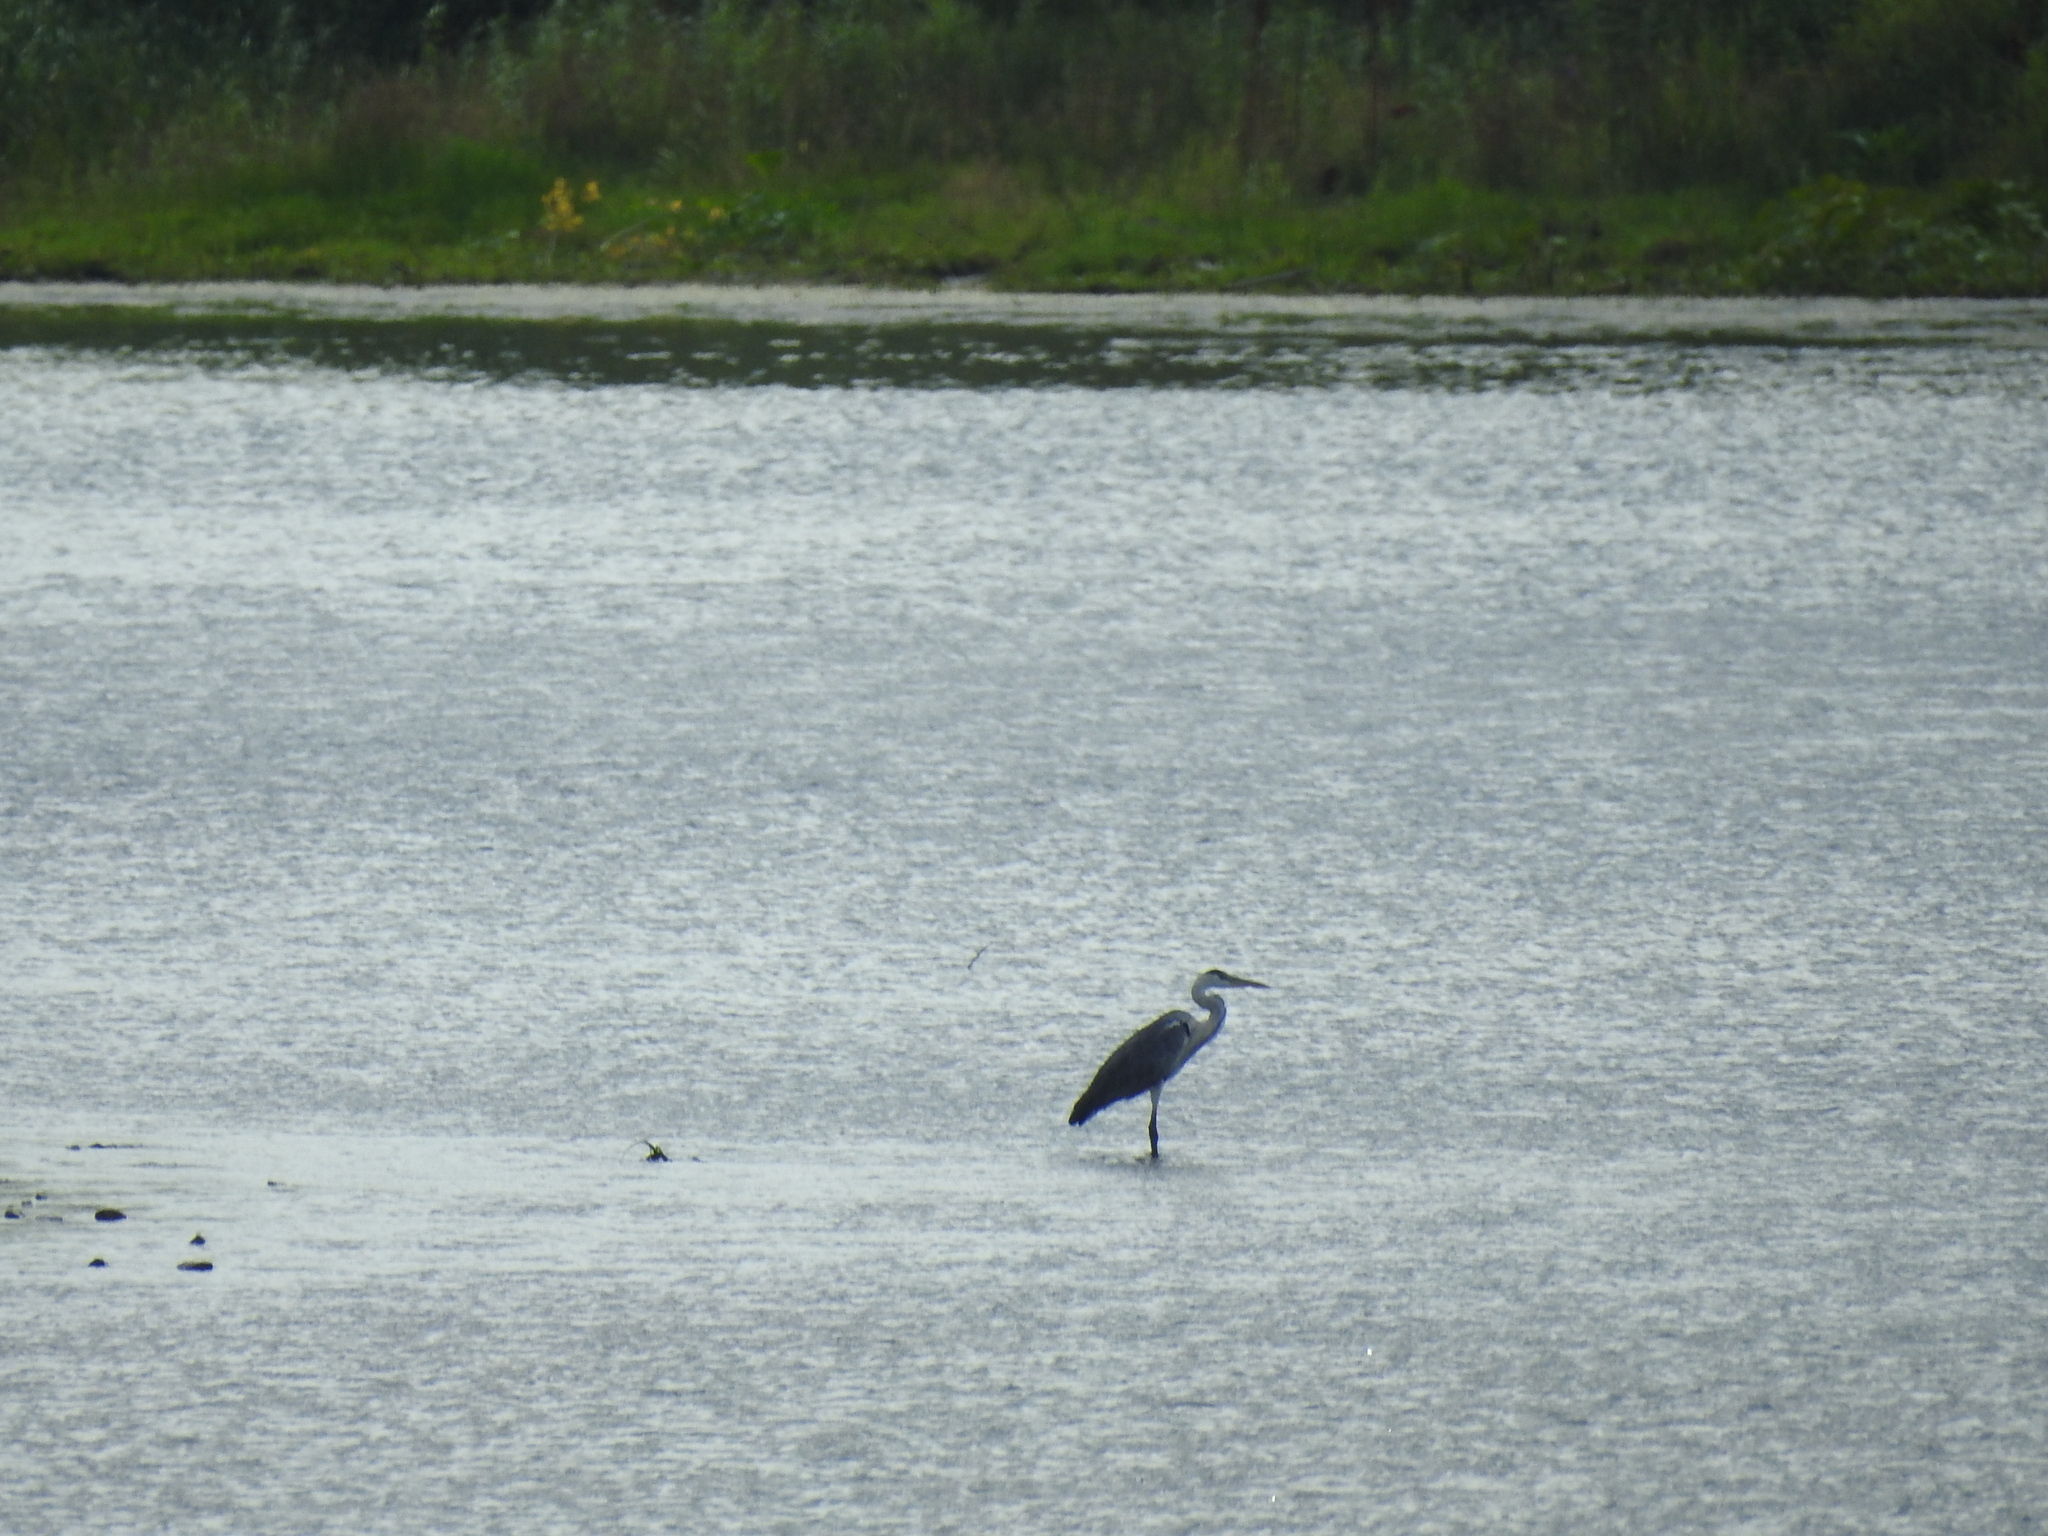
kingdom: Animalia
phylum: Chordata
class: Aves
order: Pelecaniformes
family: Ardeidae
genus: Ardea
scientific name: Ardea cinerea
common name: Grey heron
